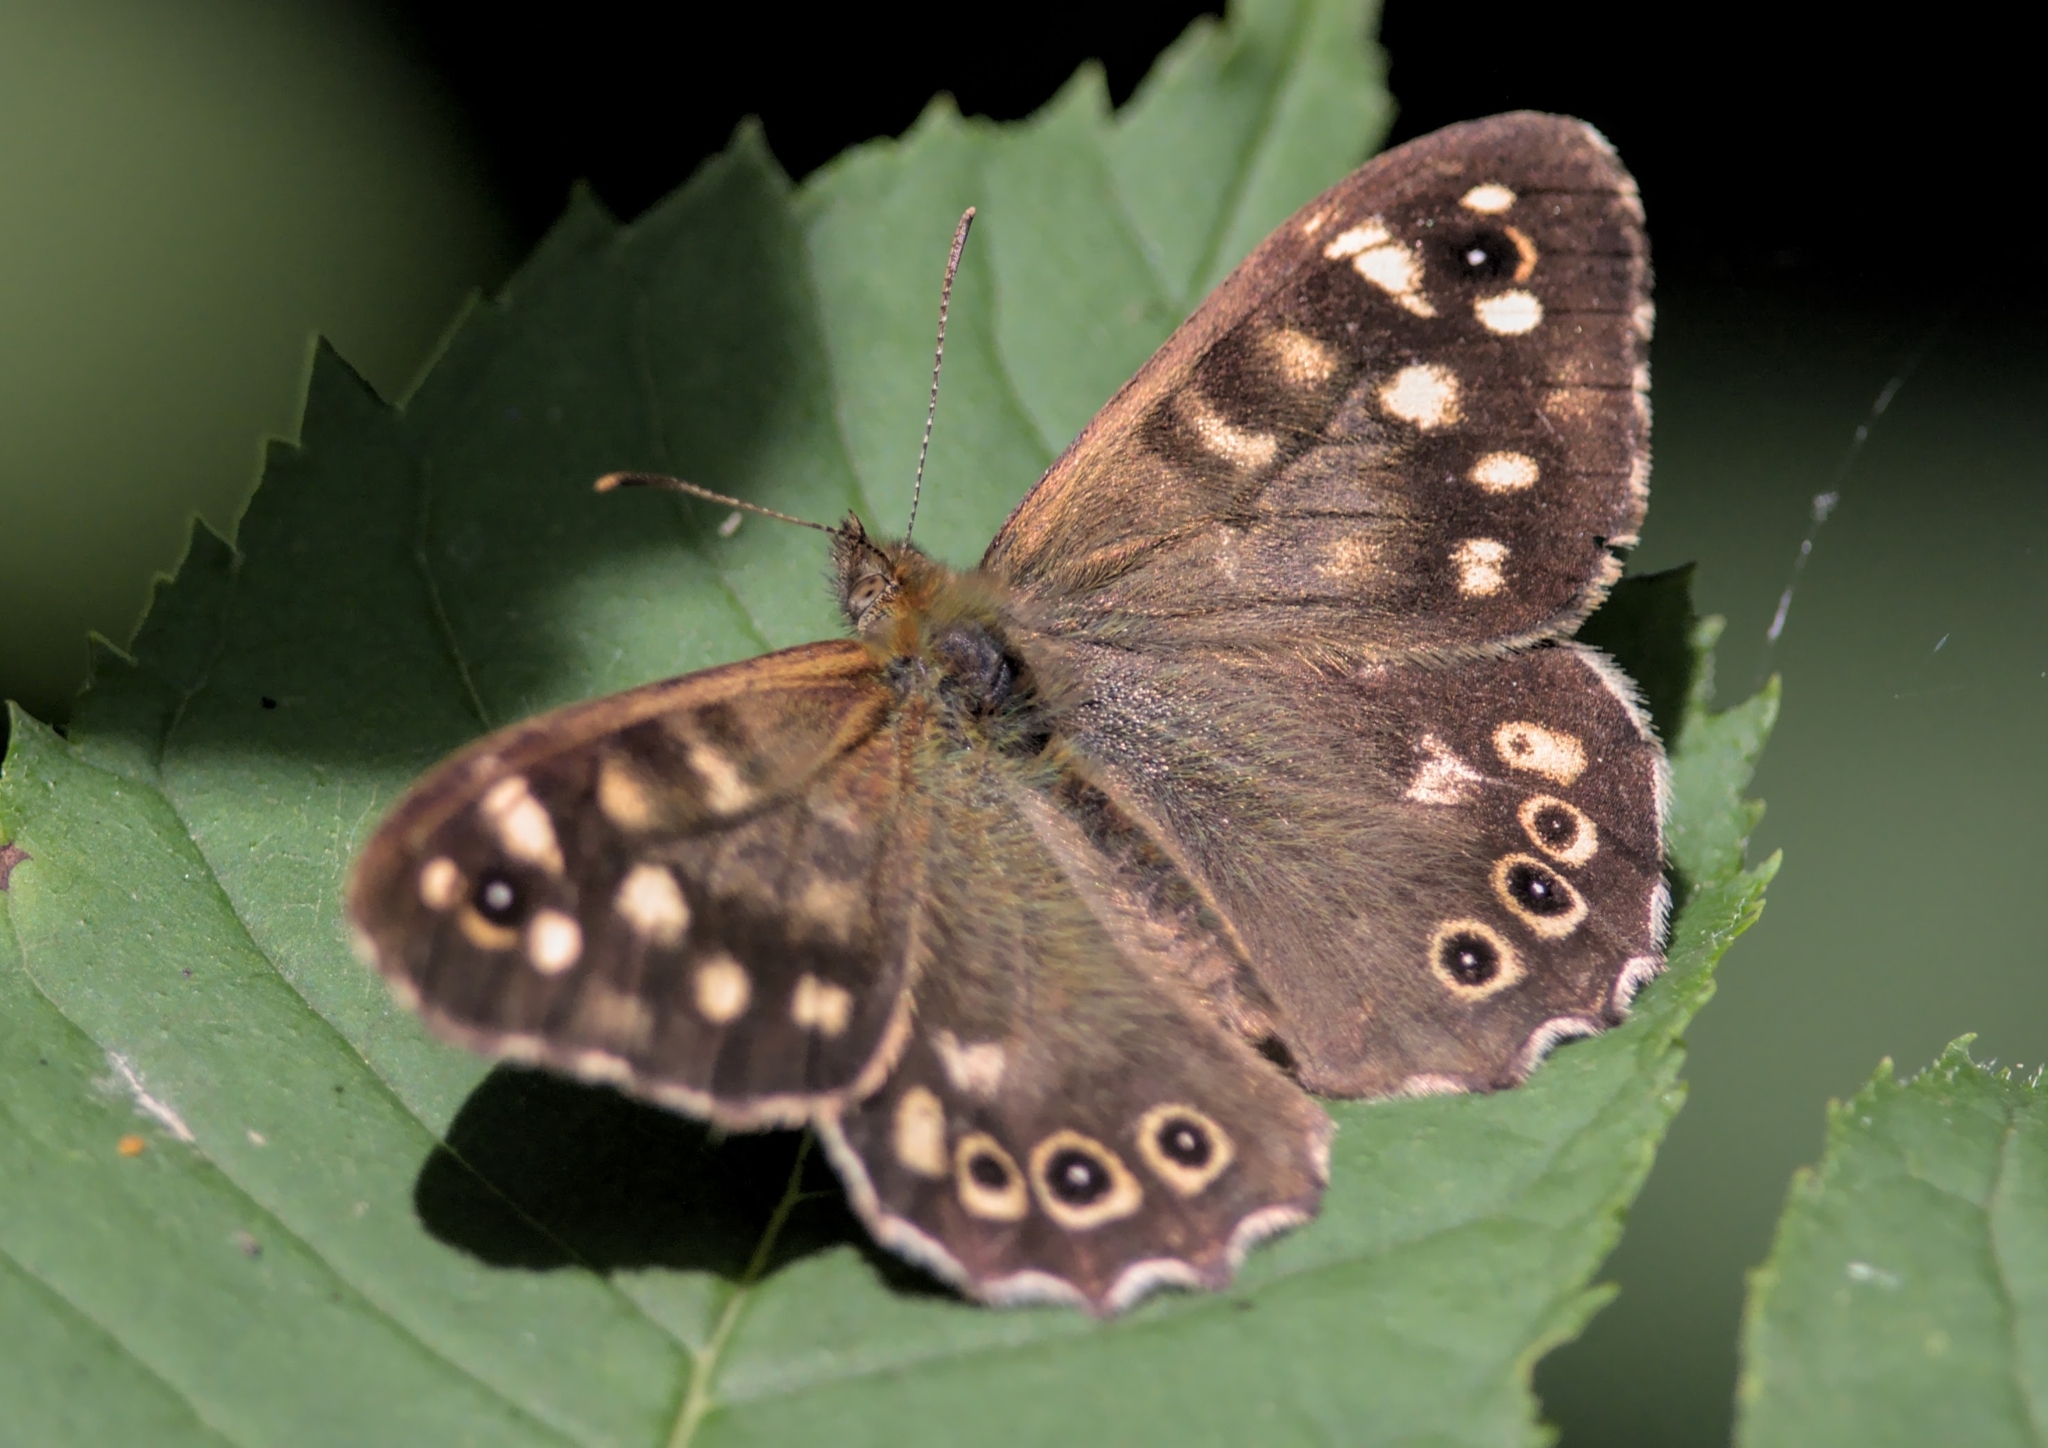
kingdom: Animalia
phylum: Arthropoda
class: Insecta
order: Lepidoptera
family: Nymphalidae
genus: Pararge
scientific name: Pararge aegeria
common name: Speckled wood
